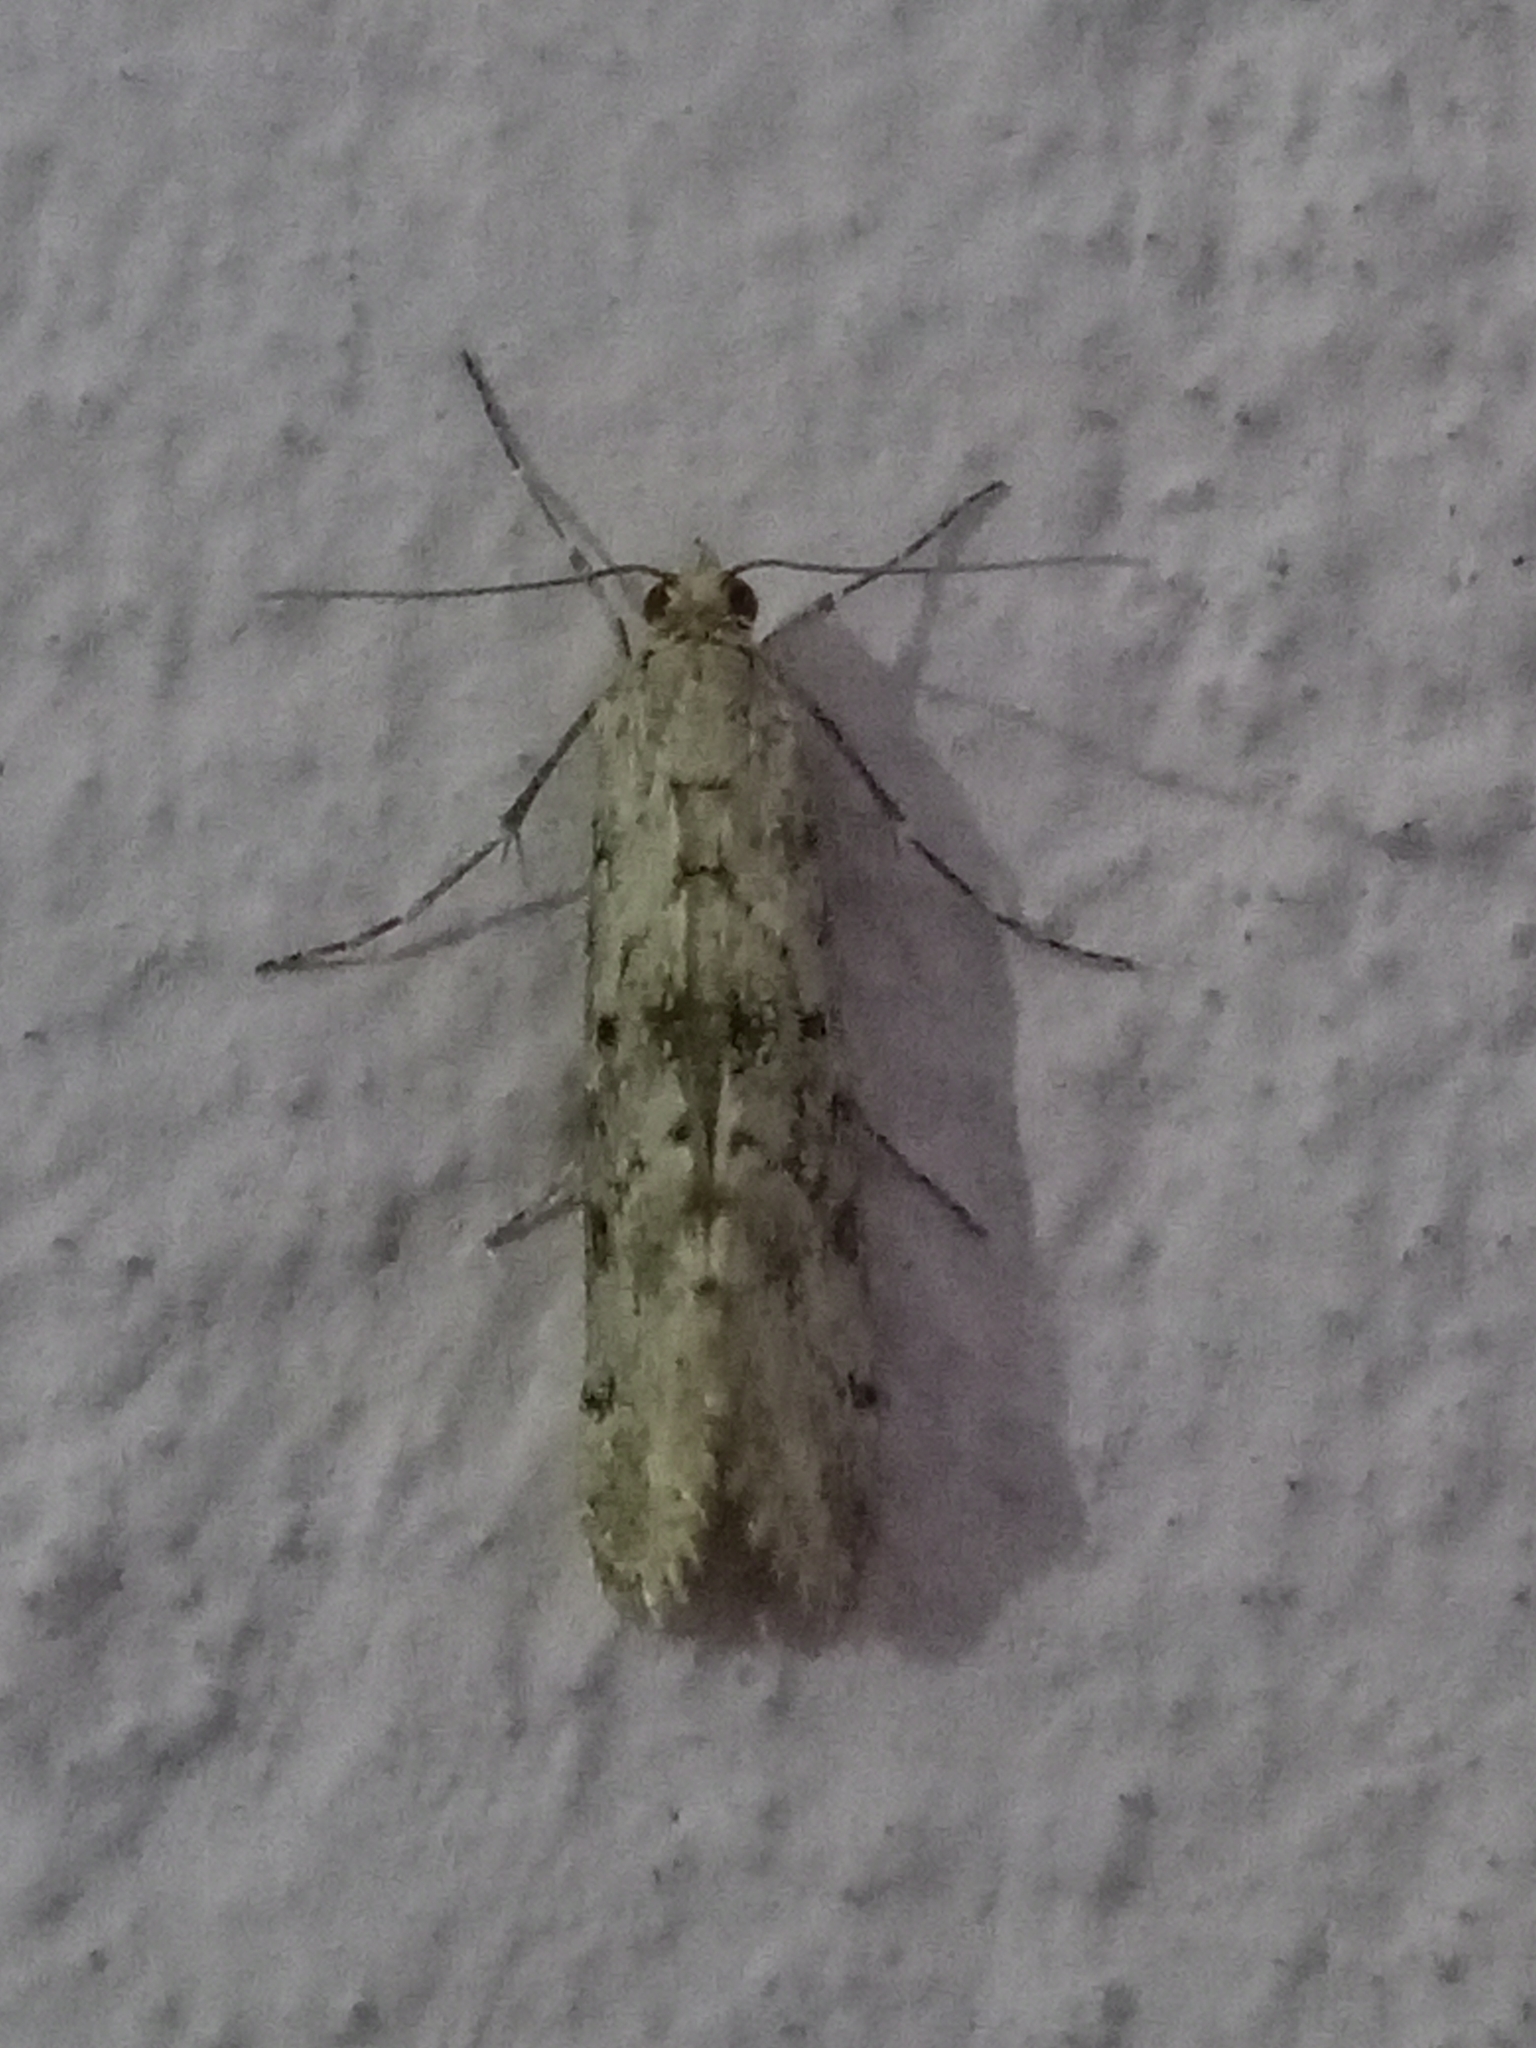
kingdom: Animalia
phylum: Arthropoda
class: Insecta
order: Lepidoptera
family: Crambidae
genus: Cornifrons
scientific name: Cornifrons ulceratalis
